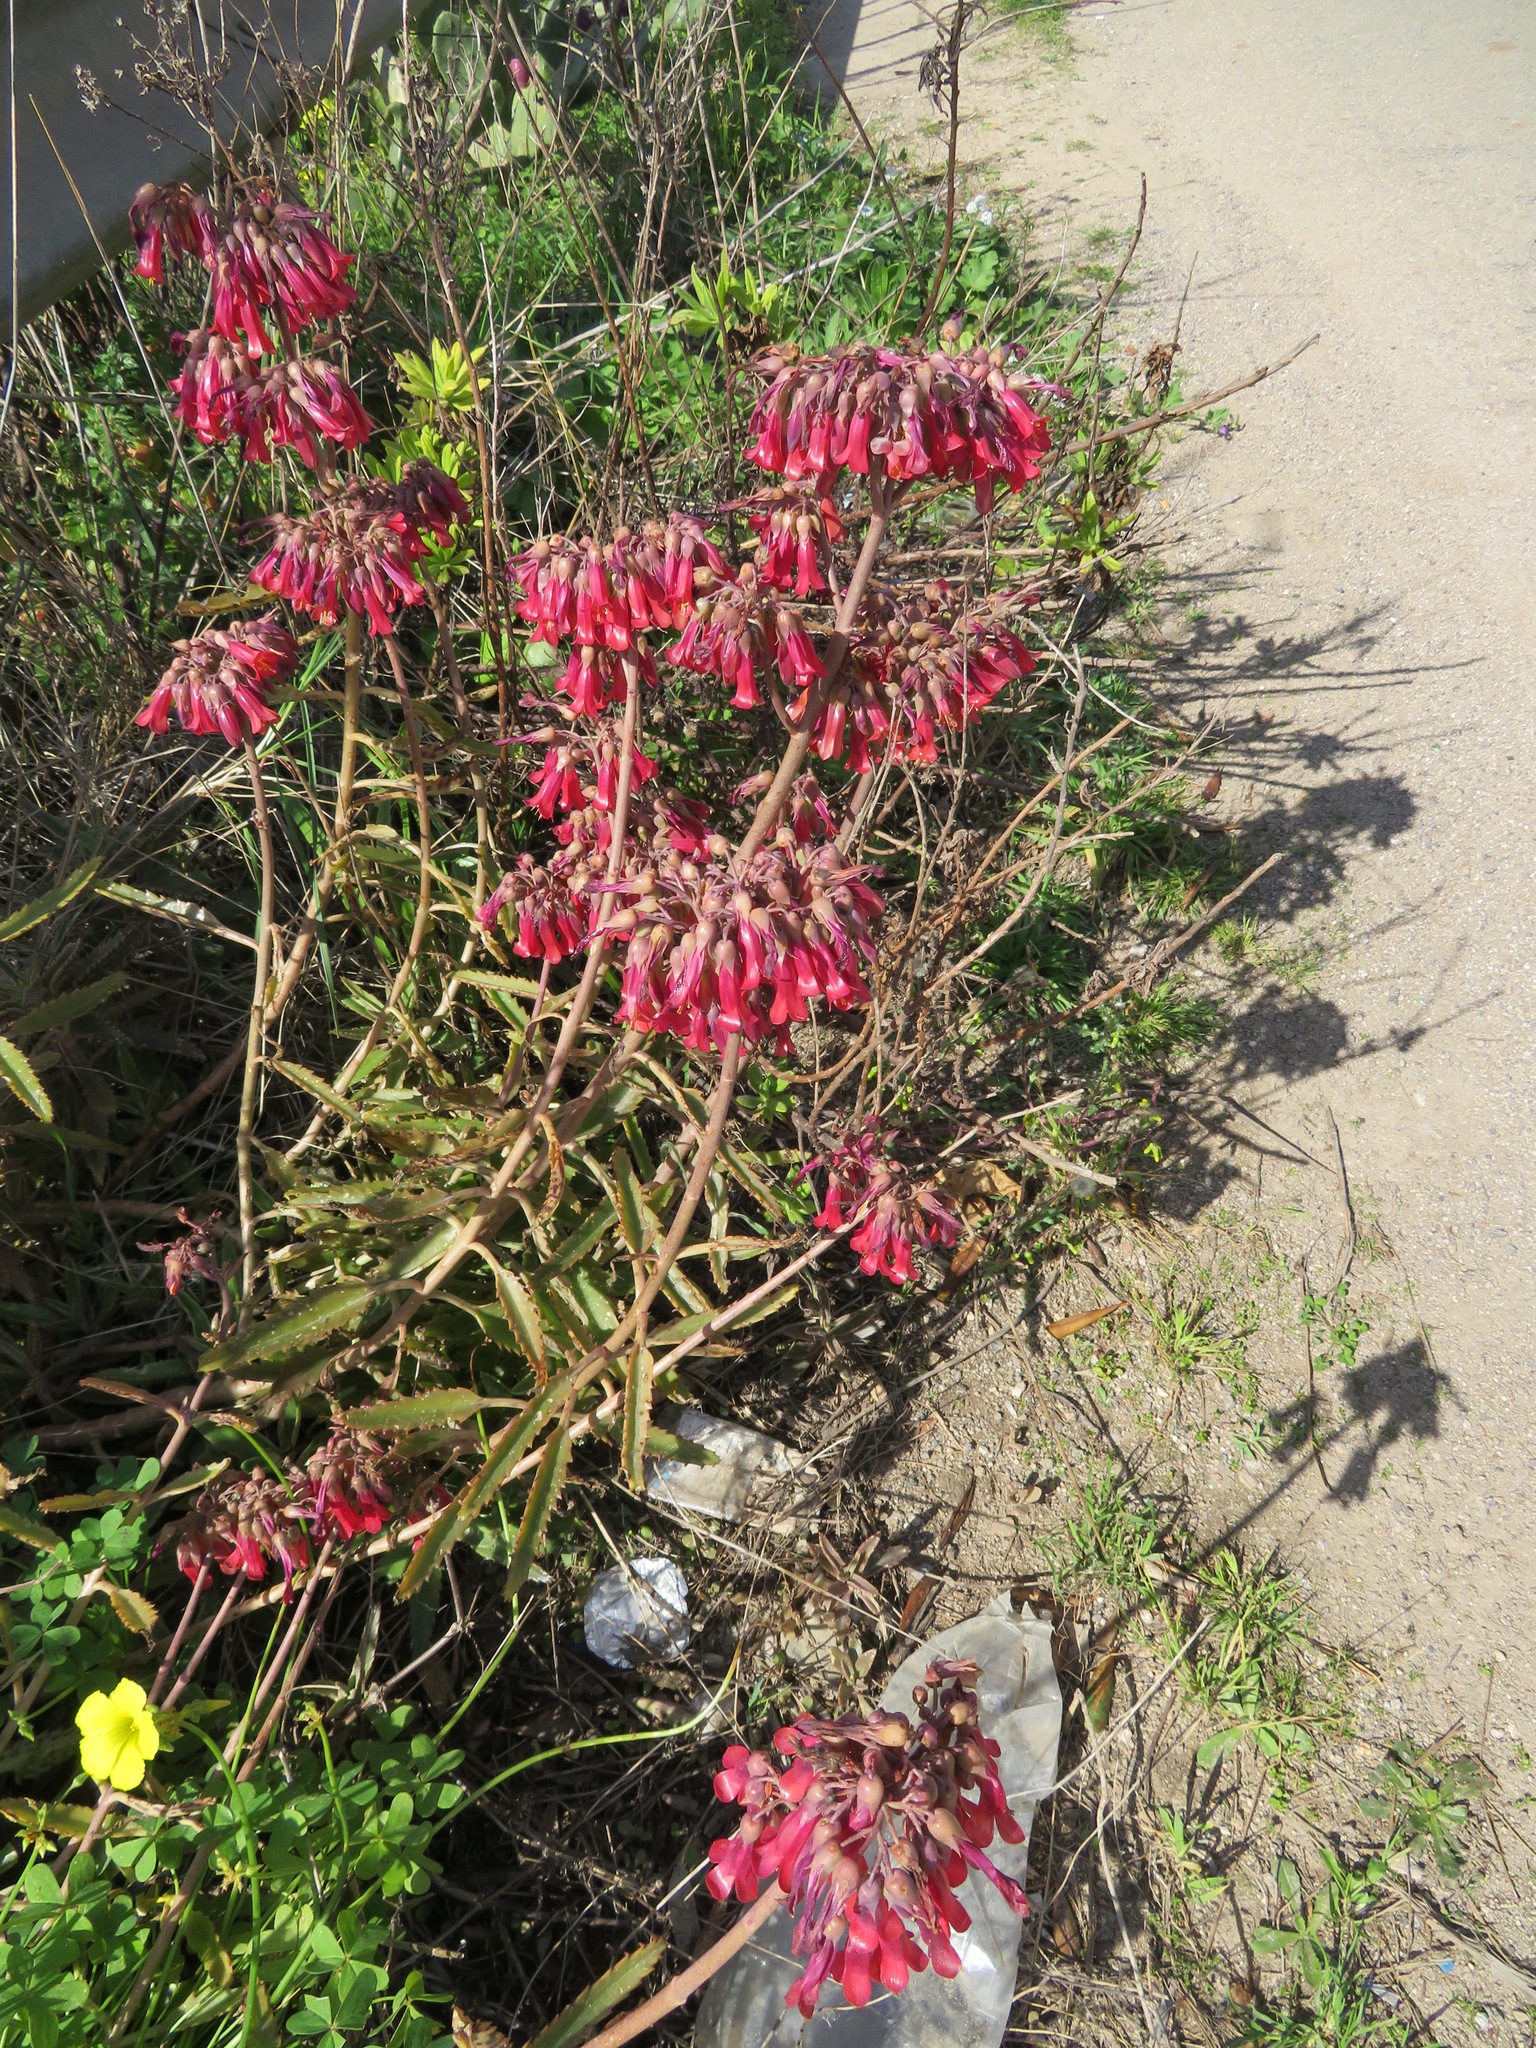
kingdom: Plantae
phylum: Tracheophyta
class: Magnoliopsida
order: Saxifragales
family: Crassulaceae
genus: Kalanchoe
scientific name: Kalanchoe houghtonii
